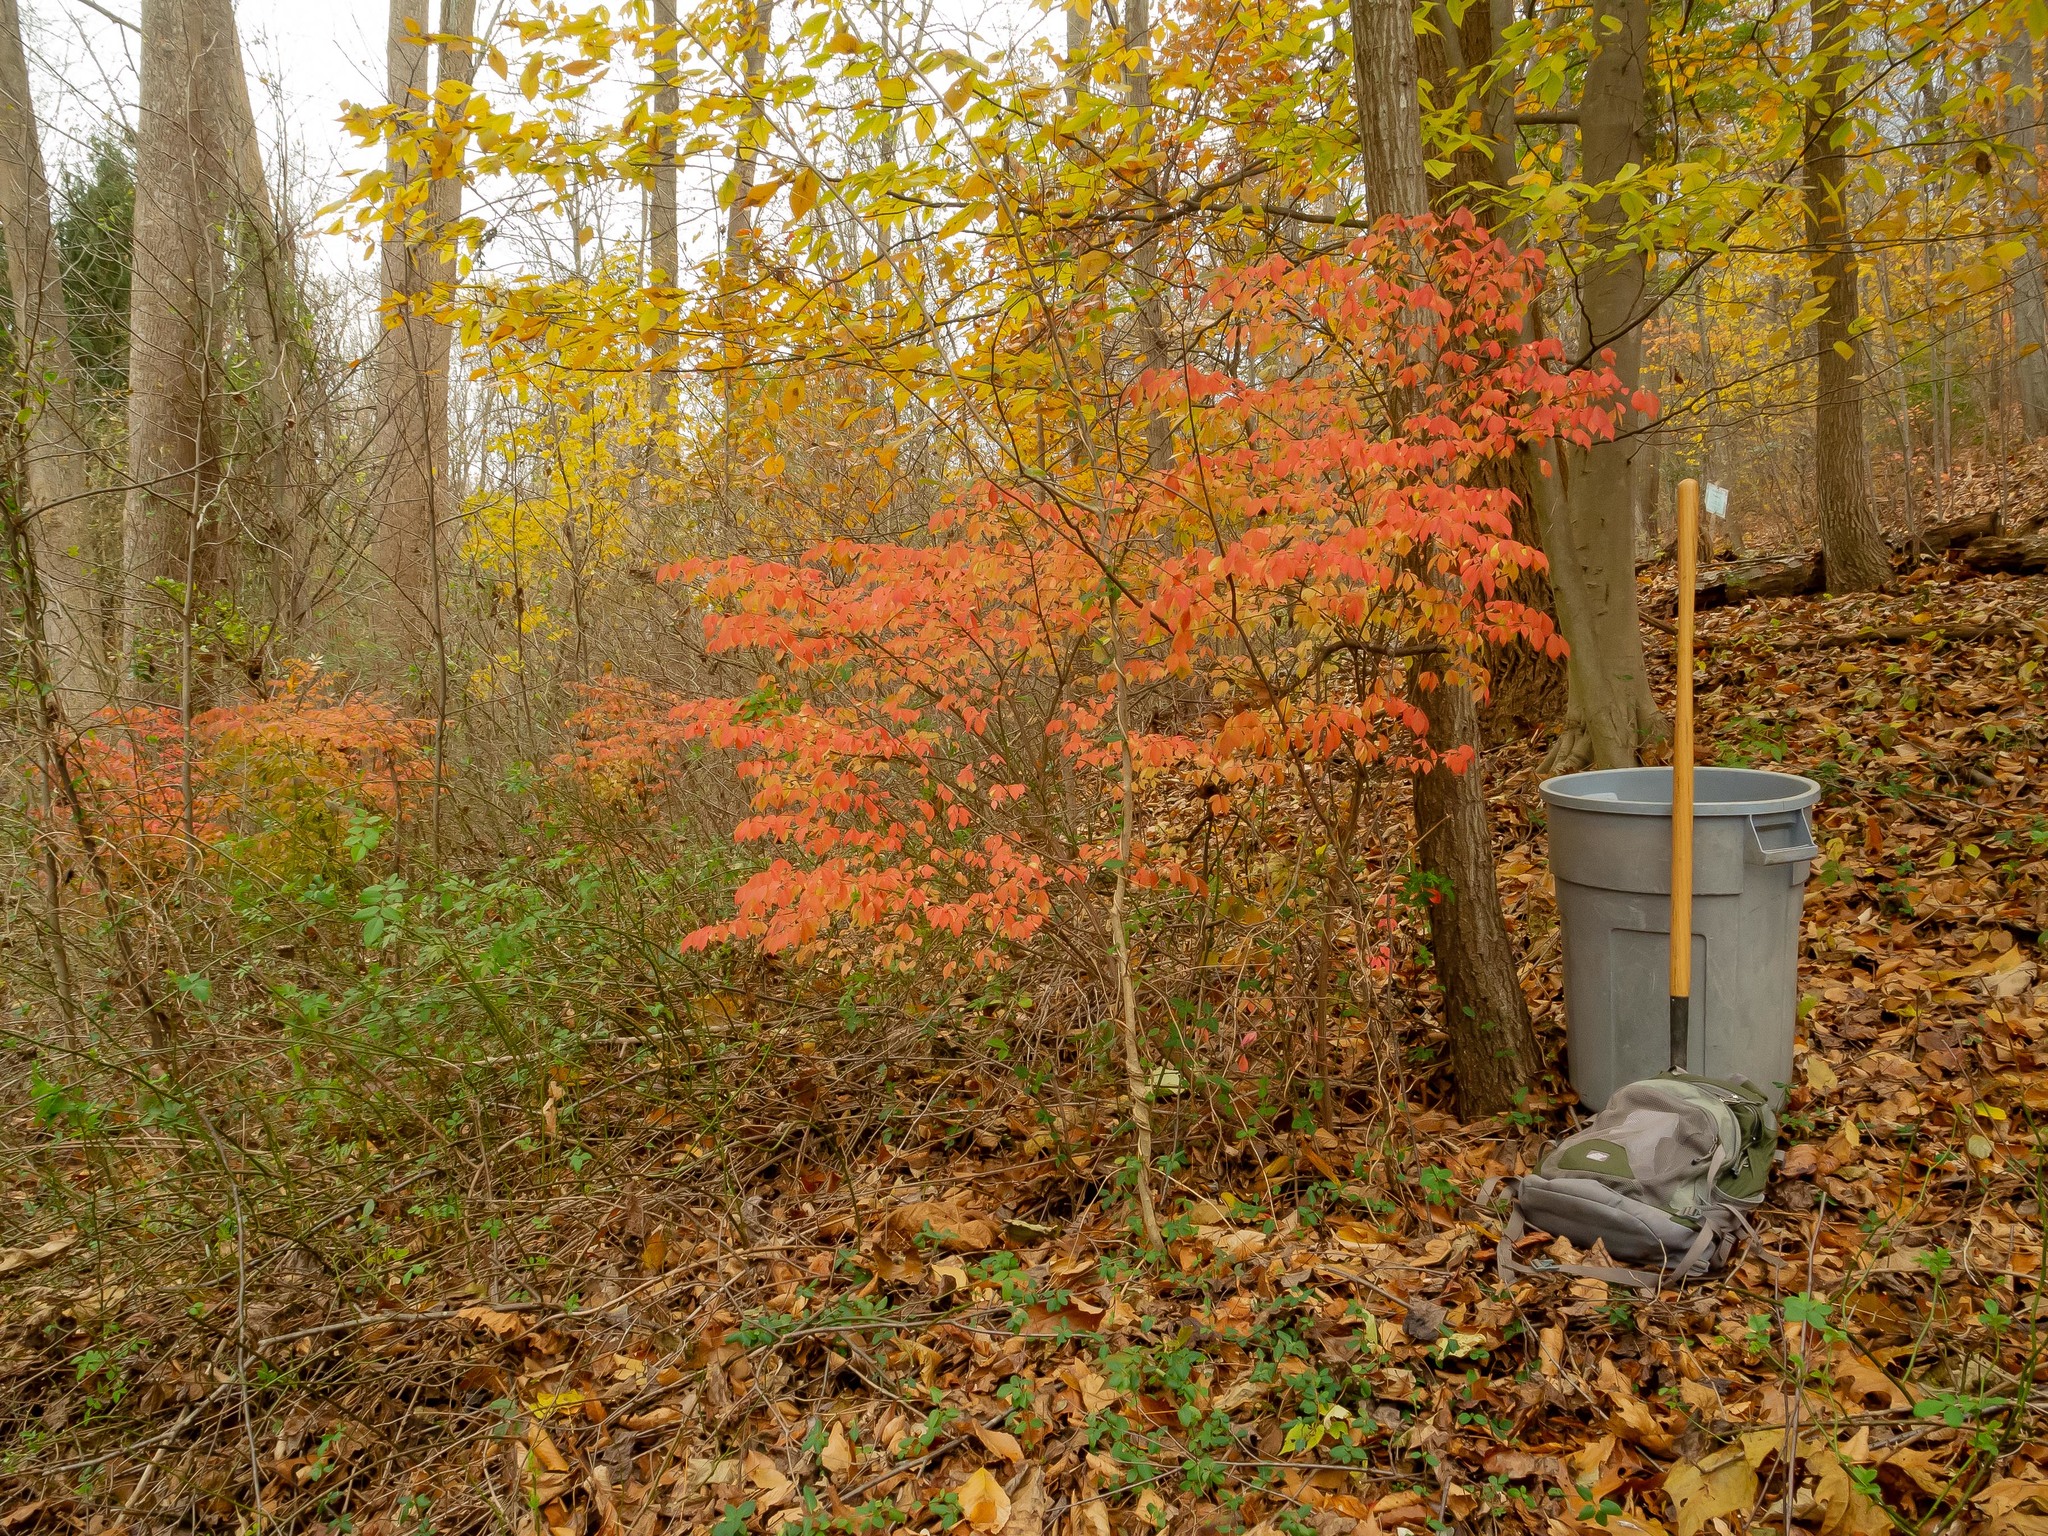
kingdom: Plantae
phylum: Tracheophyta
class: Magnoliopsida
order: Celastrales
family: Celastraceae
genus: Euonymus
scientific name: Euonymus alatus
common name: Winged euonymus
